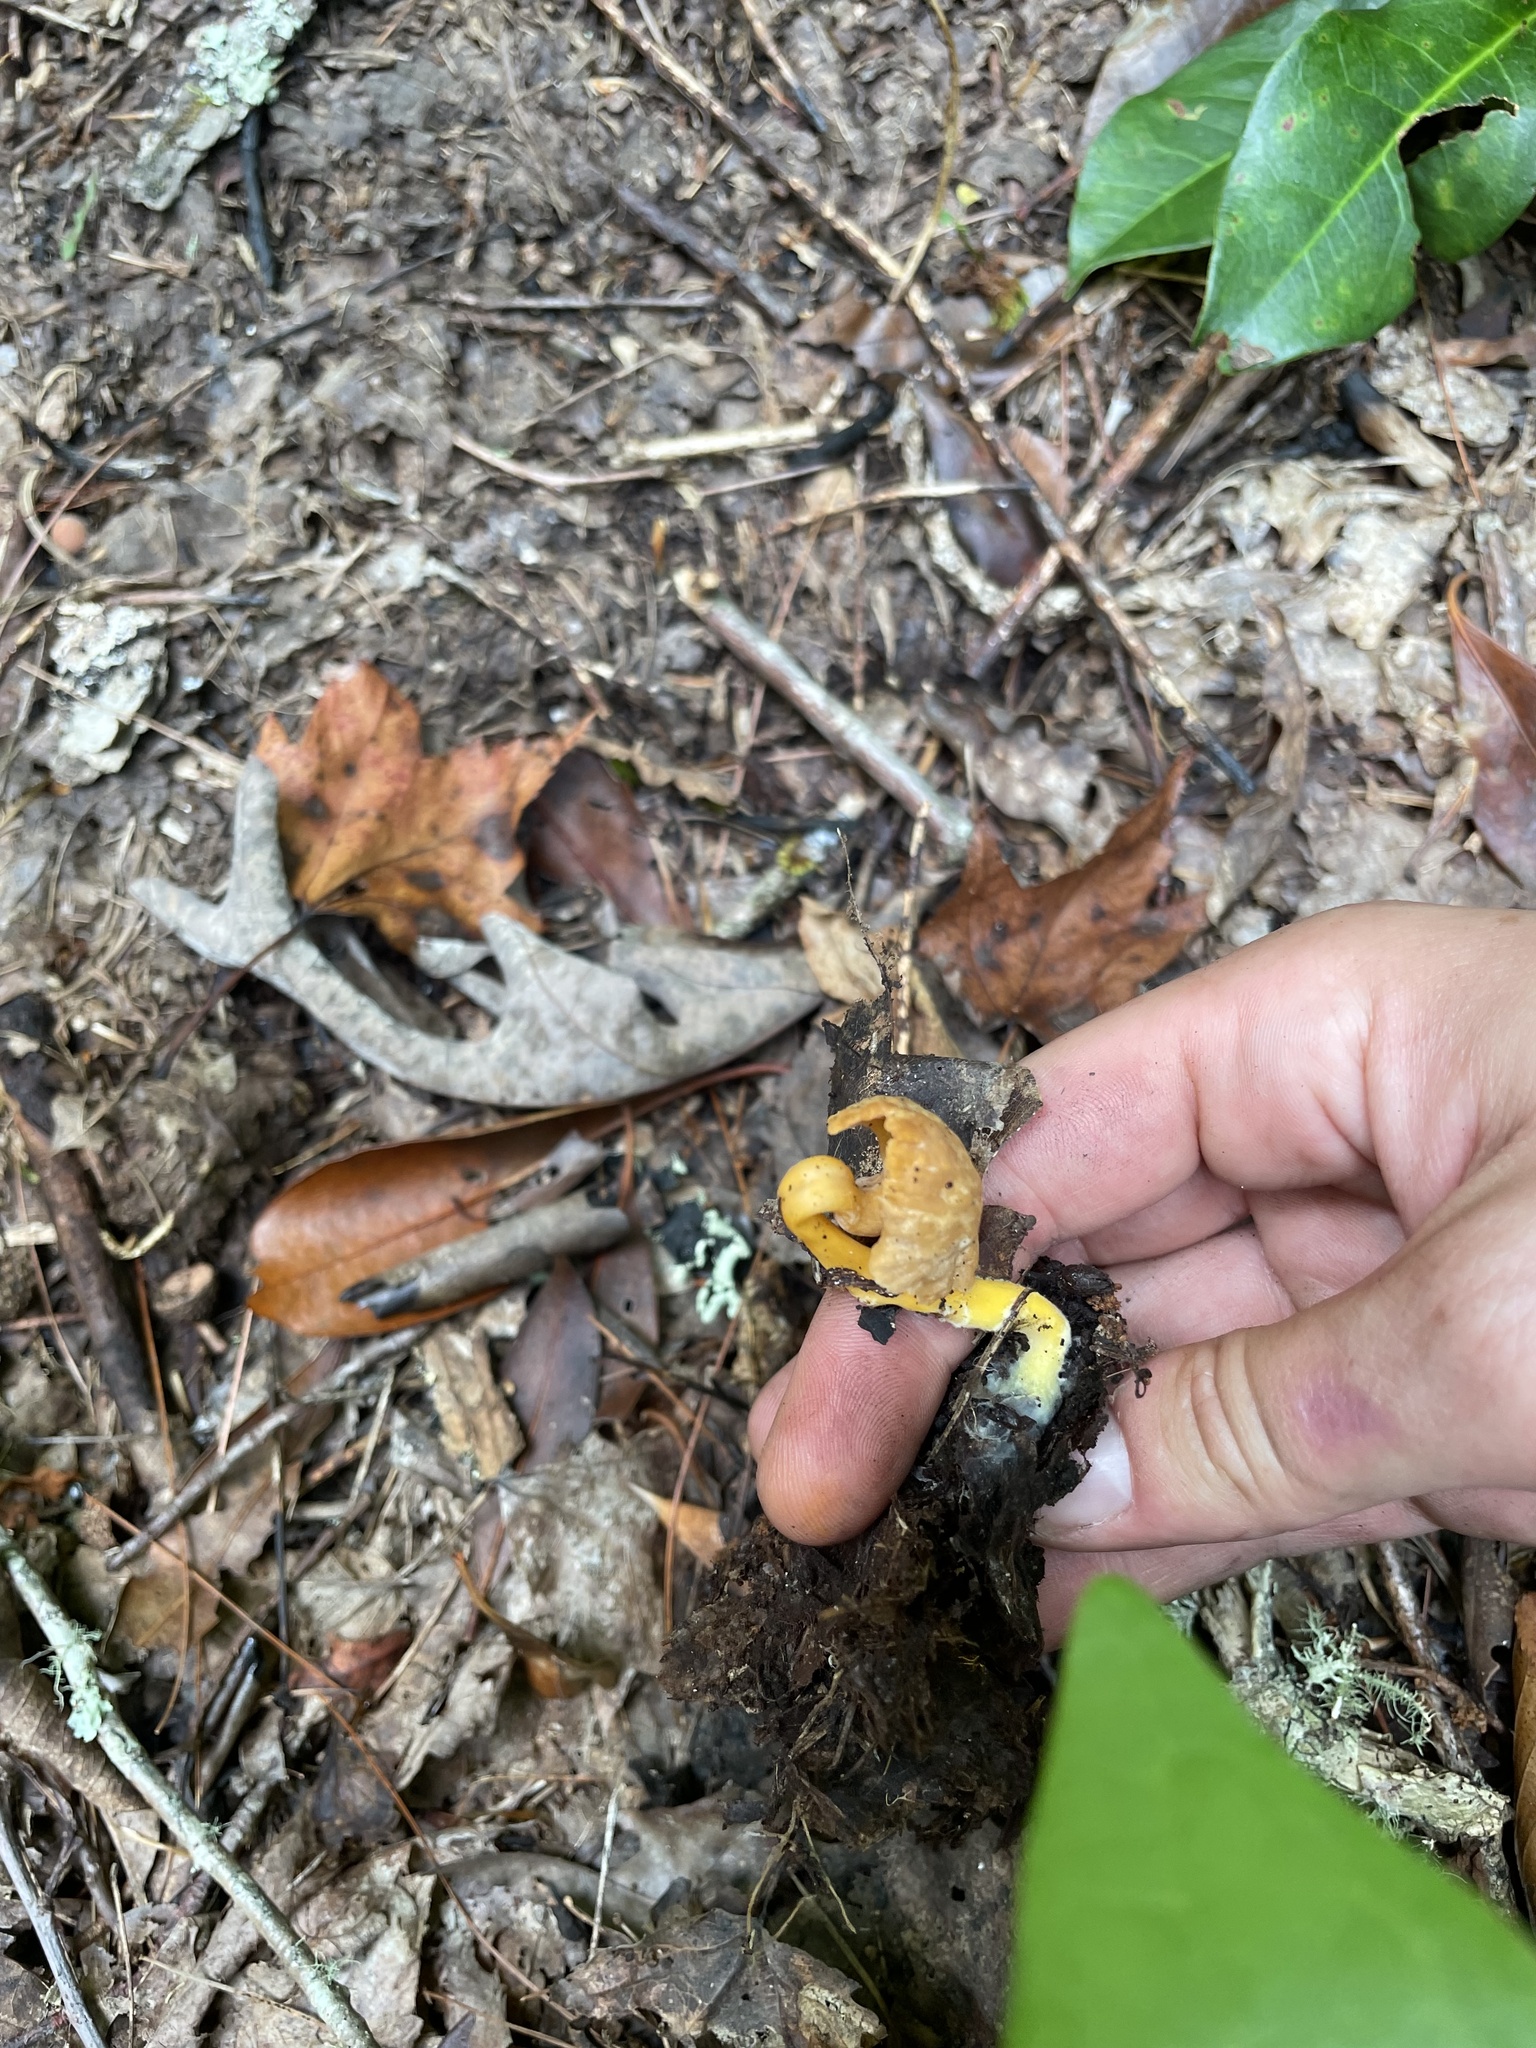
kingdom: Fungi
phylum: Basidiomycota
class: Agaricomycetes
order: Cantharellales
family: Hydnaceae
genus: Craterellus
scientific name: Craterellus ignicolor
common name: Flame chanterelle
